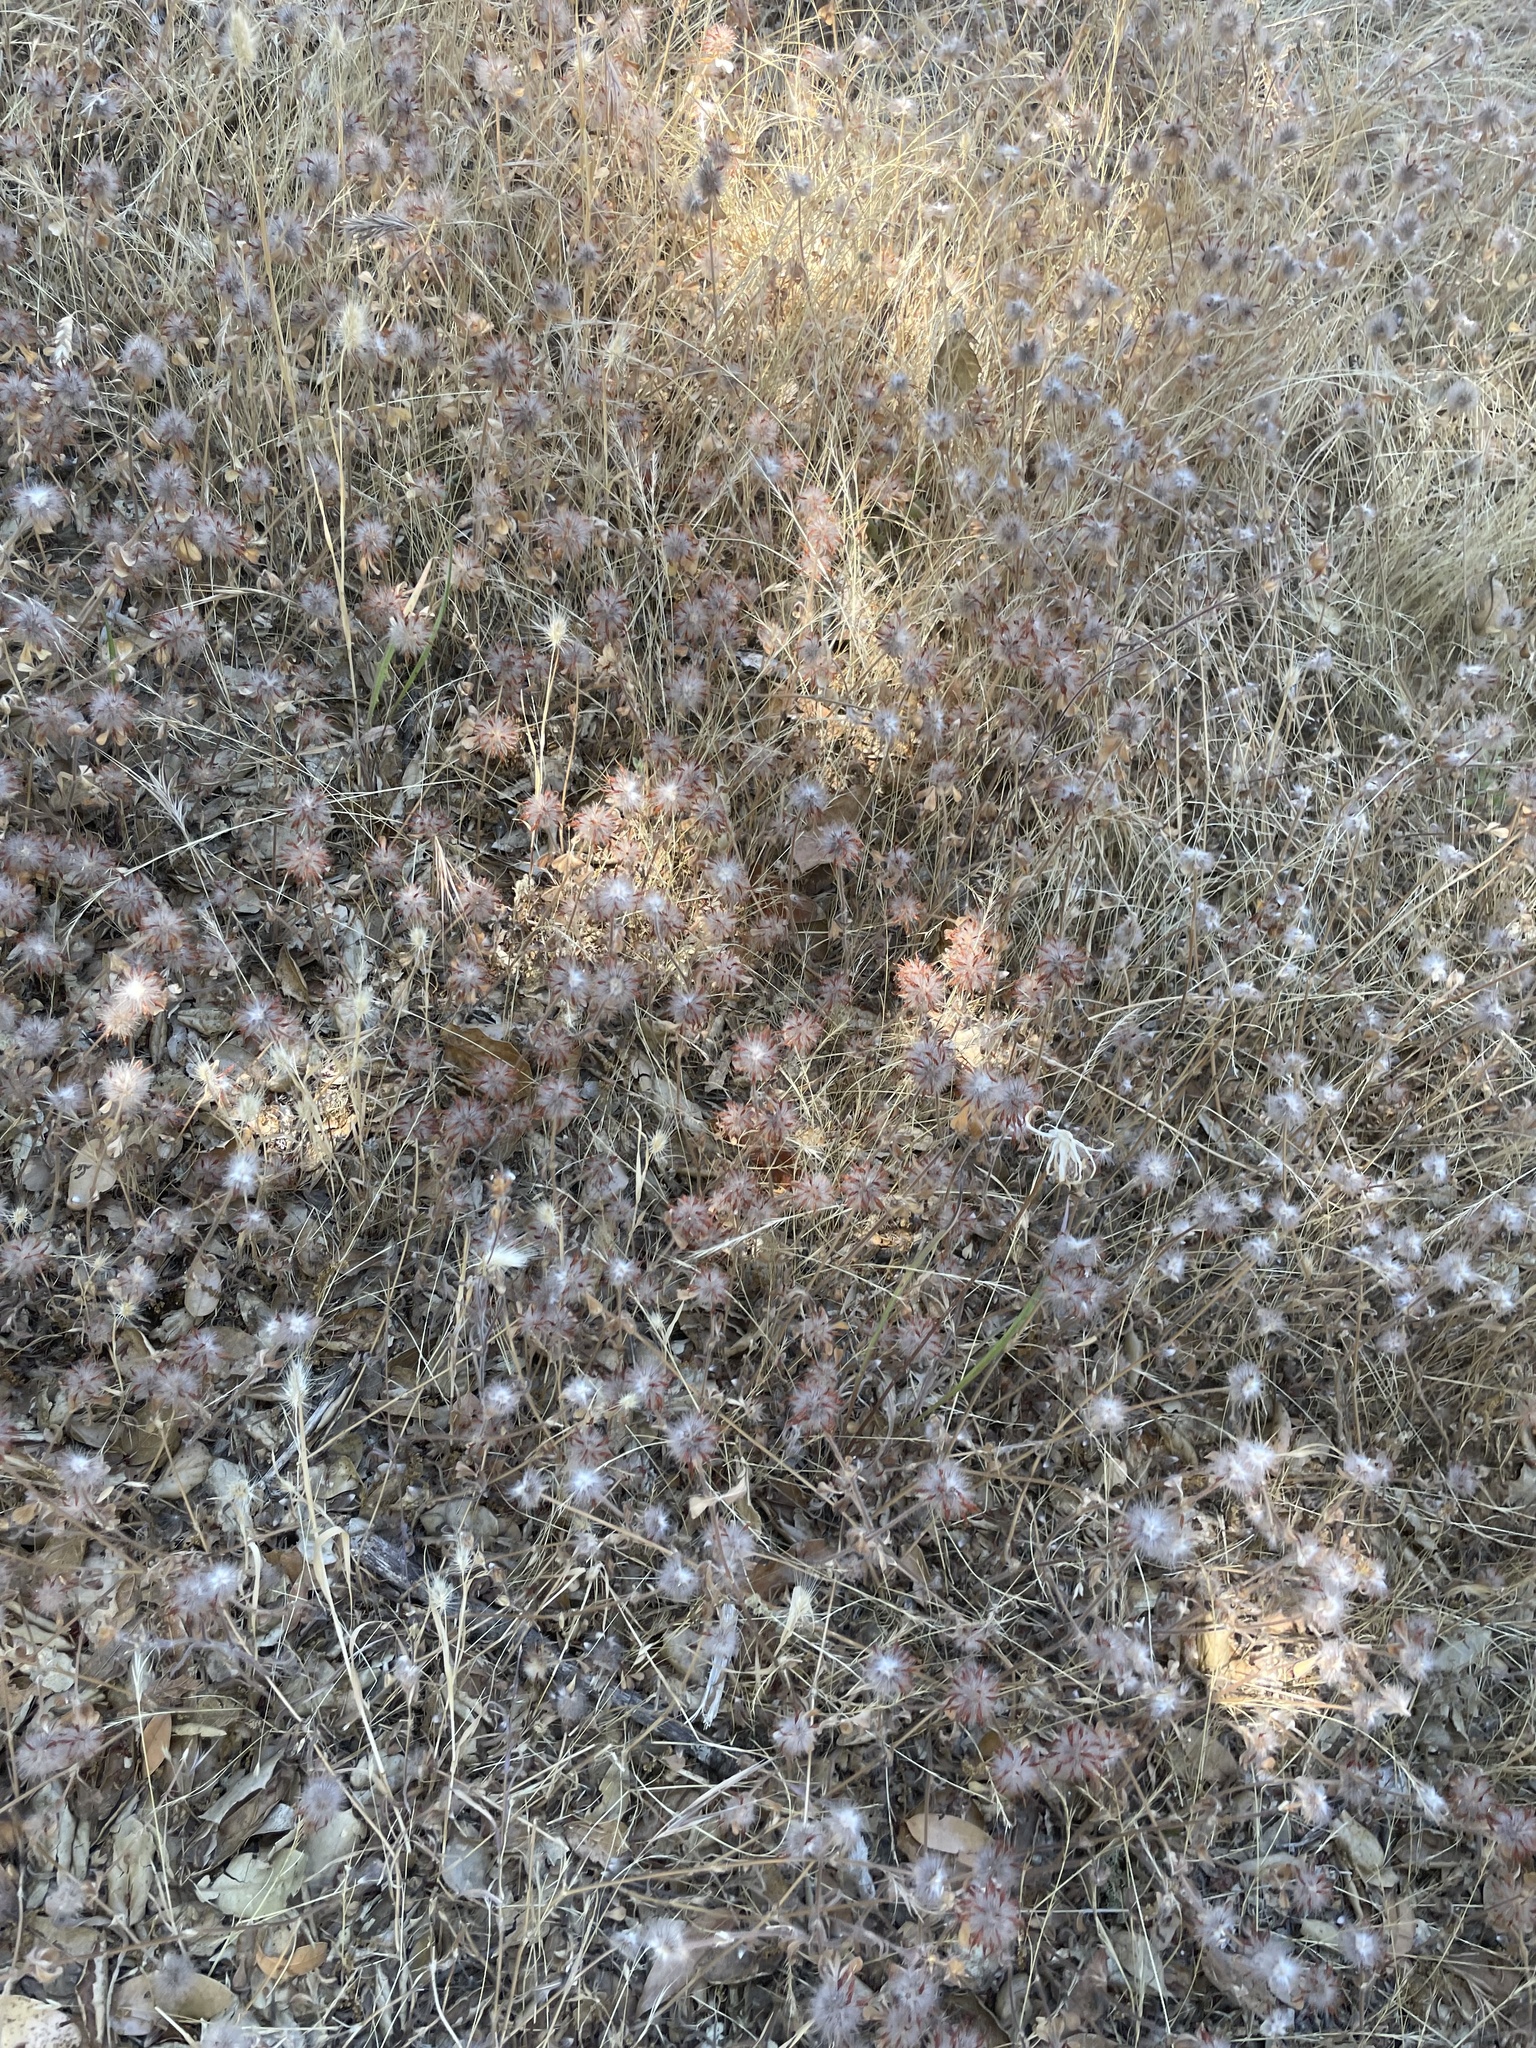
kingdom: Plantae
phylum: Tracheophyta
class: Magnoliopsida
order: Fabales
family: Fabaceae
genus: Trifolium
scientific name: Trifolium hirtum
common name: Rose clover
